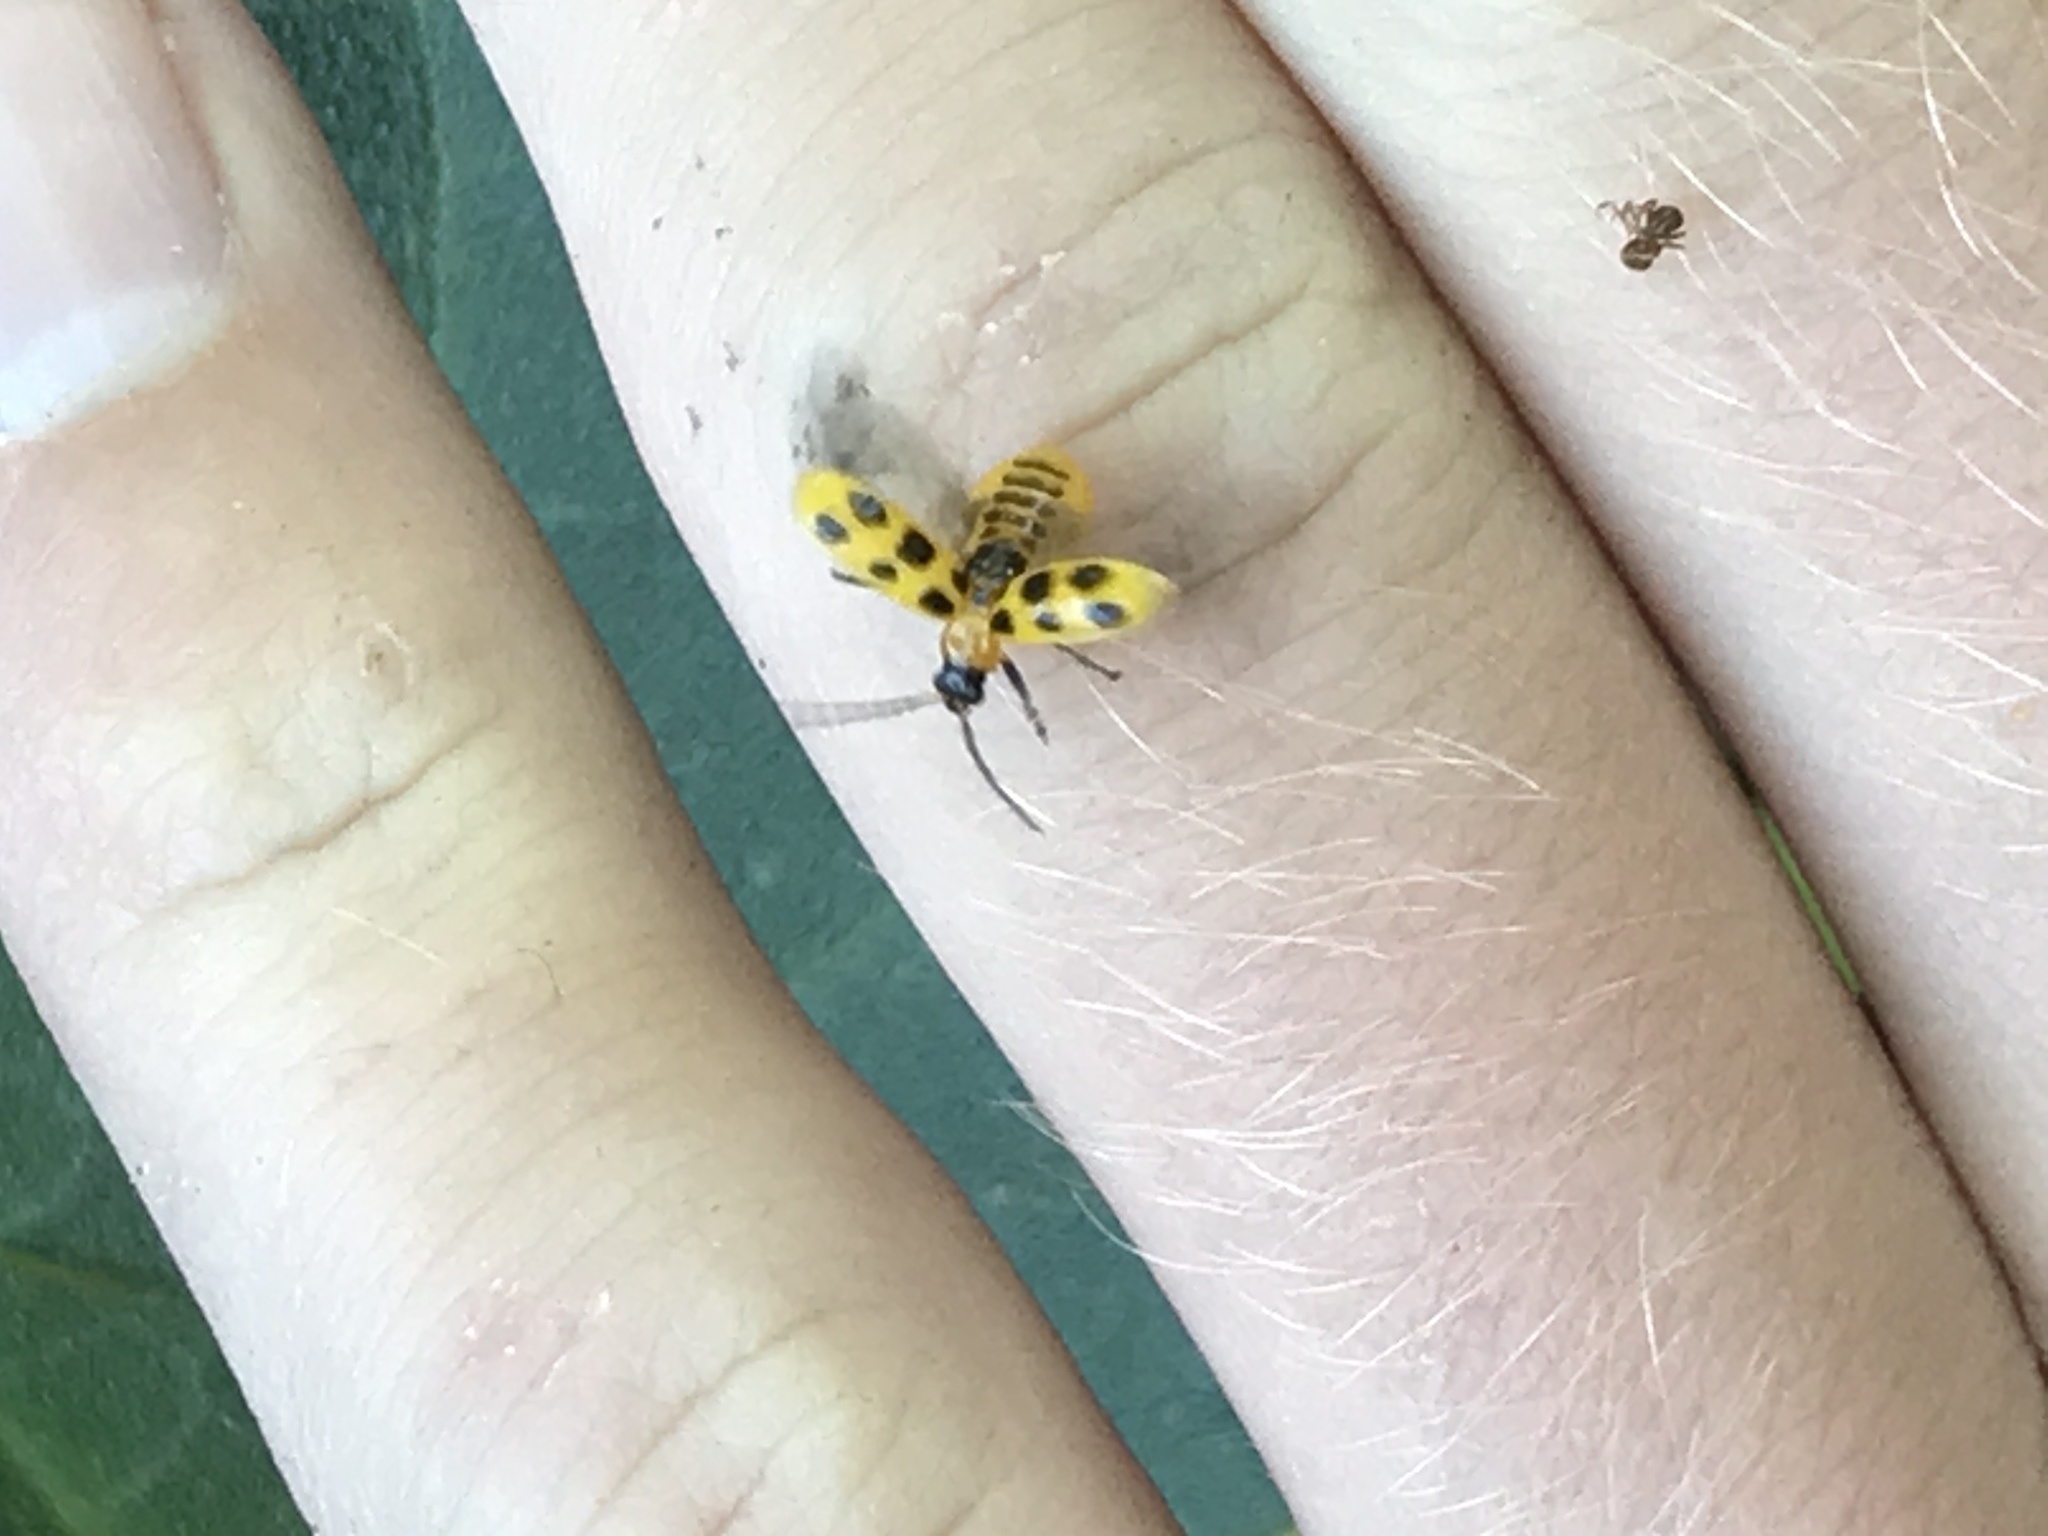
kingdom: Animalia
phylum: Arthropoda
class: Insecta
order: Coleoptera
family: Chrysomelidae
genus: Diabrotica
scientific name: Diabrotica undecimpunctata
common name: Spotted cucumber beetle
